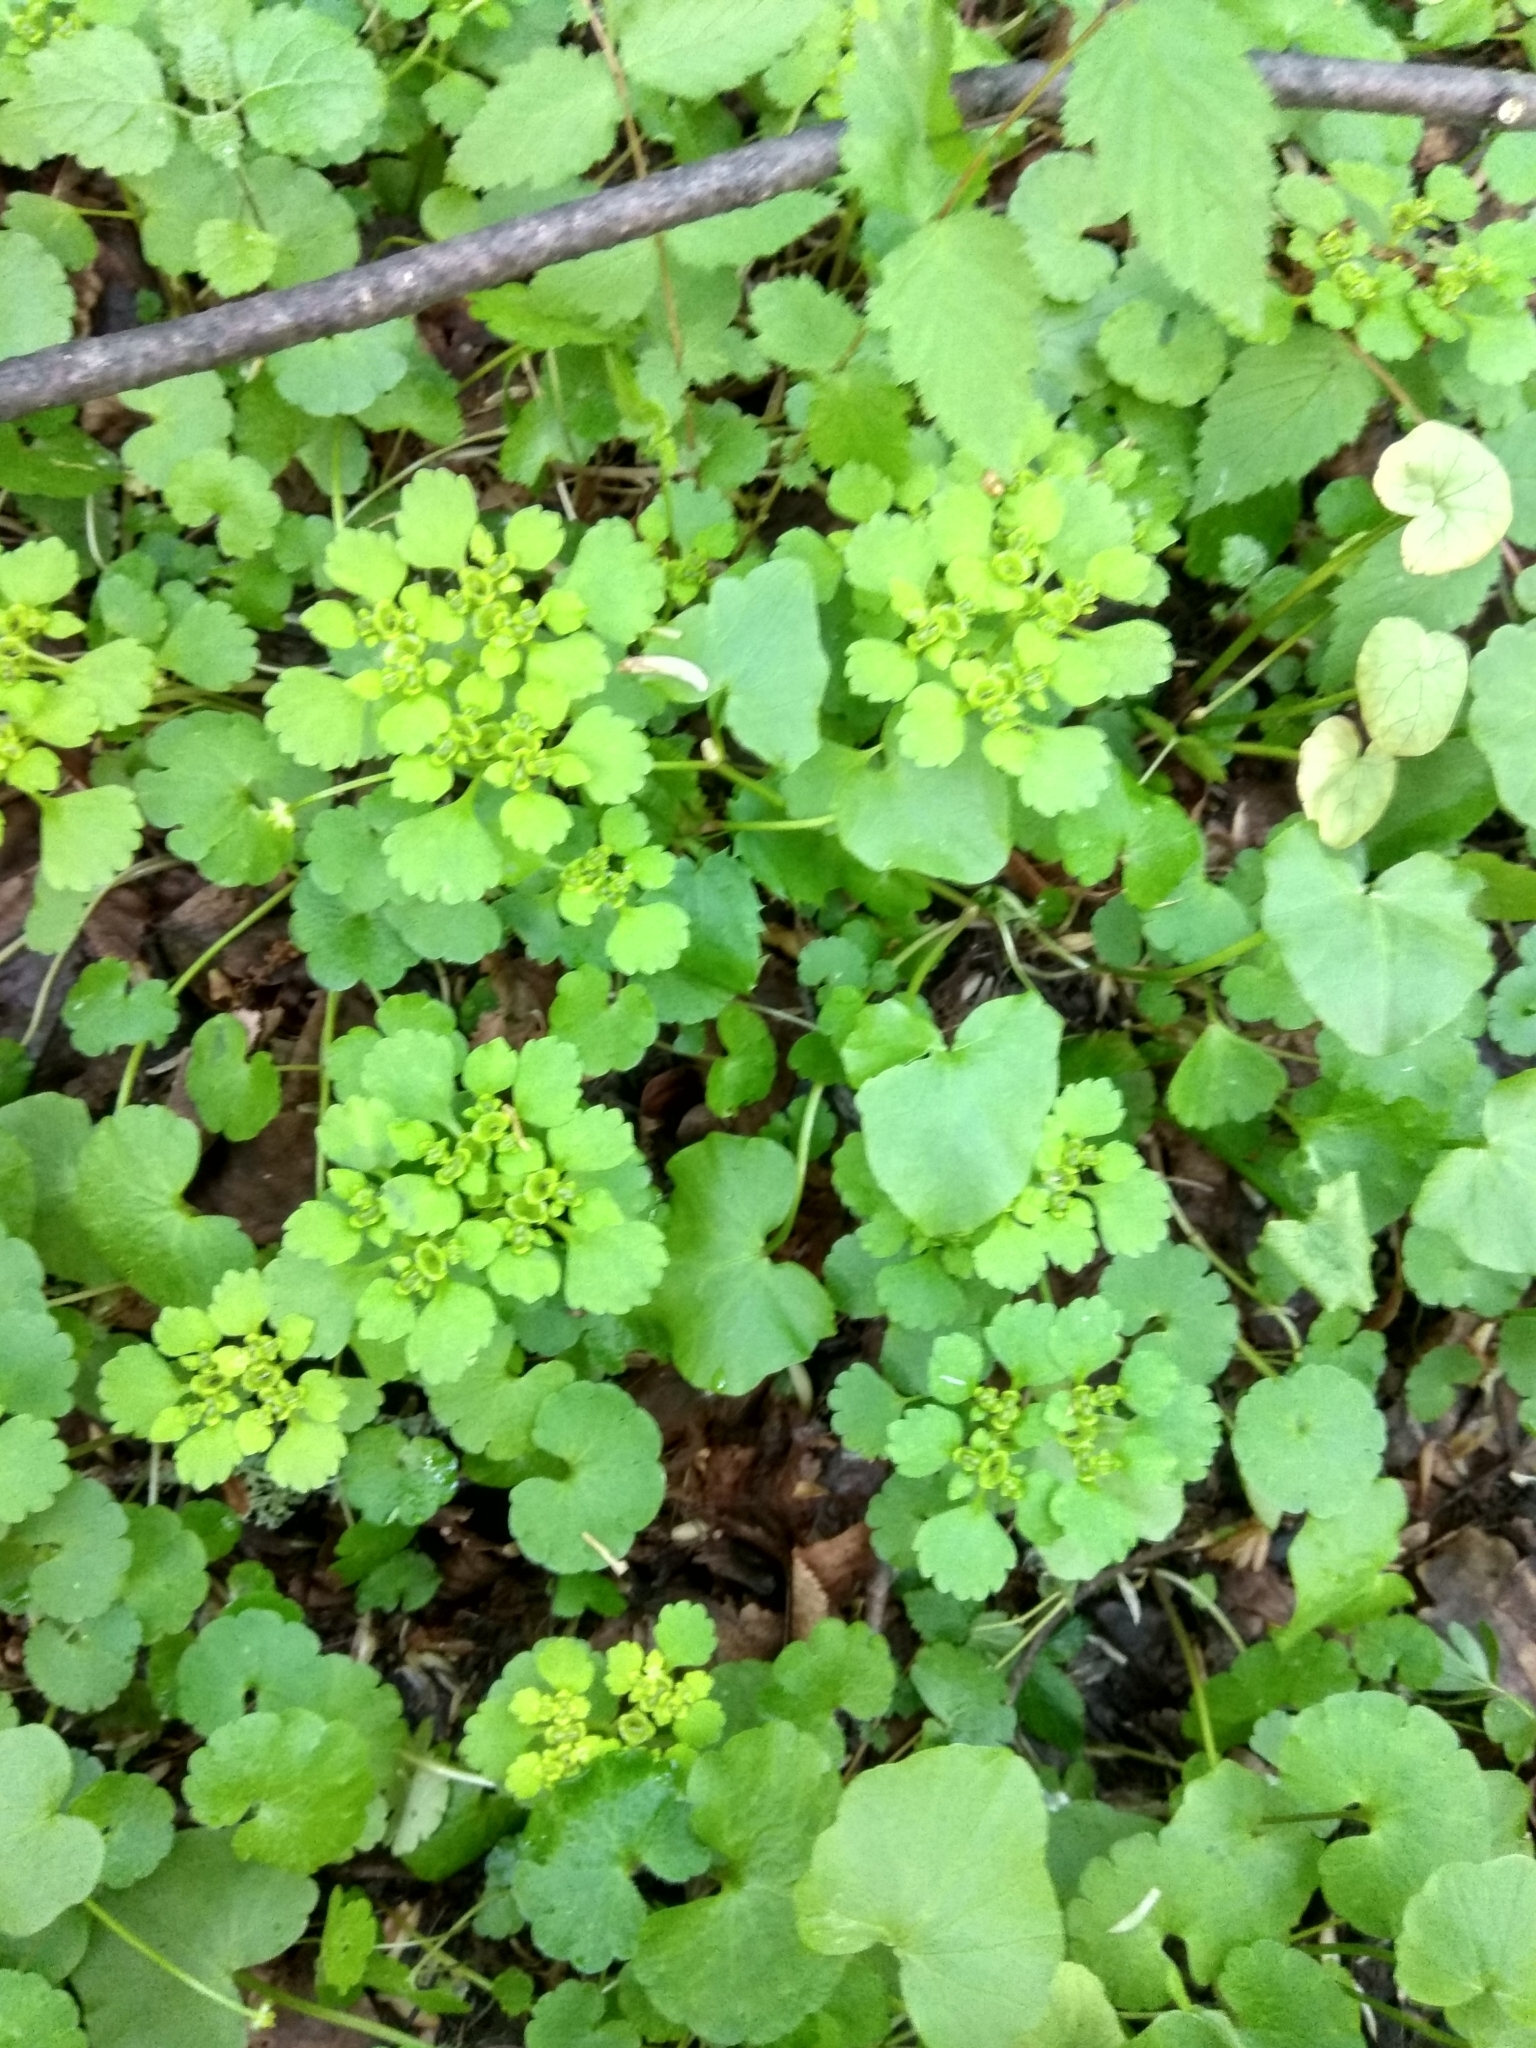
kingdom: Plantae
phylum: Tracheophyta
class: Magnoliopsida
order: Saxifragales
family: Saxifragaceae
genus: Chrysosplenium
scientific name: Chrysosplenium alternifolium
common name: Alternate-leaved golden-saxifrage
